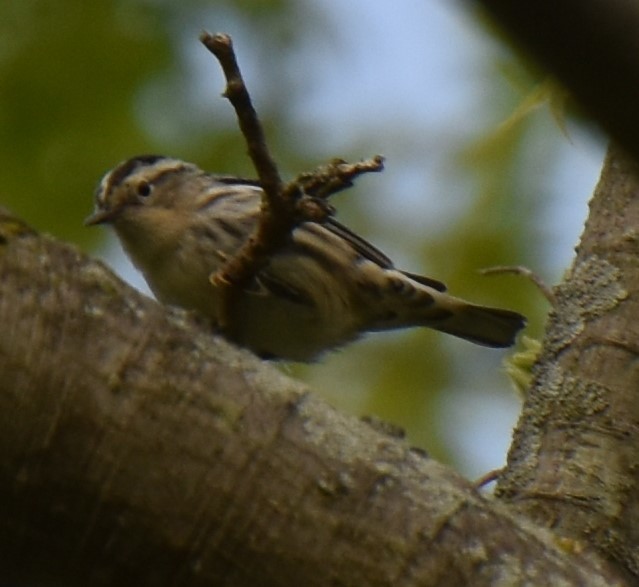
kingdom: Animalia
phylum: Chordata
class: Aves
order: Passeriformes
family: Parulidae
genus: Mniotilta
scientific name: Mniotilta varia
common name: Black-and-white warbler
